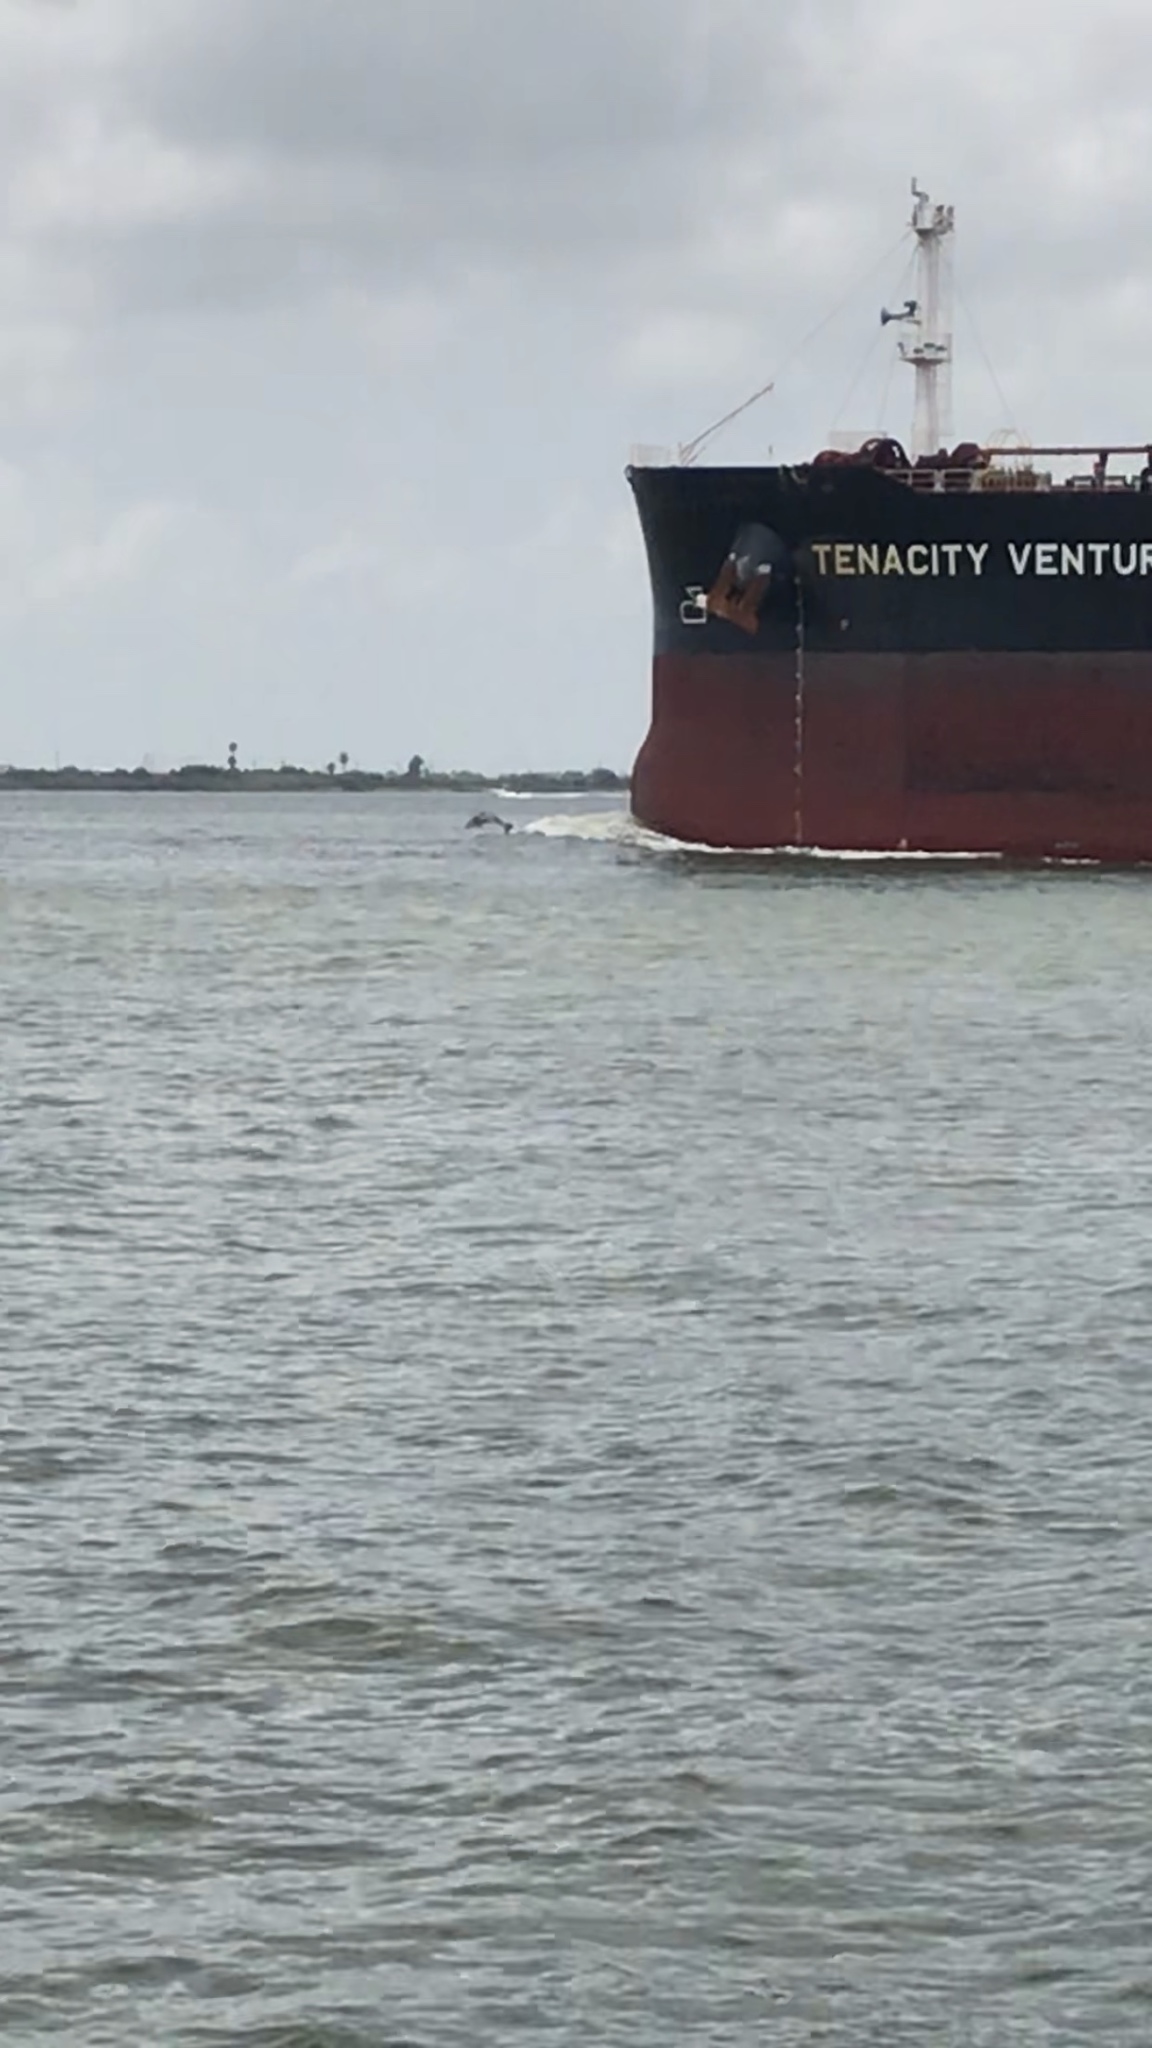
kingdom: Animalia
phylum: Chordata
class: Mammalia
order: Cetacea
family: Delphinidae
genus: Tursiops
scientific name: Tursiops truncatus
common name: Bottlenose dolphin
